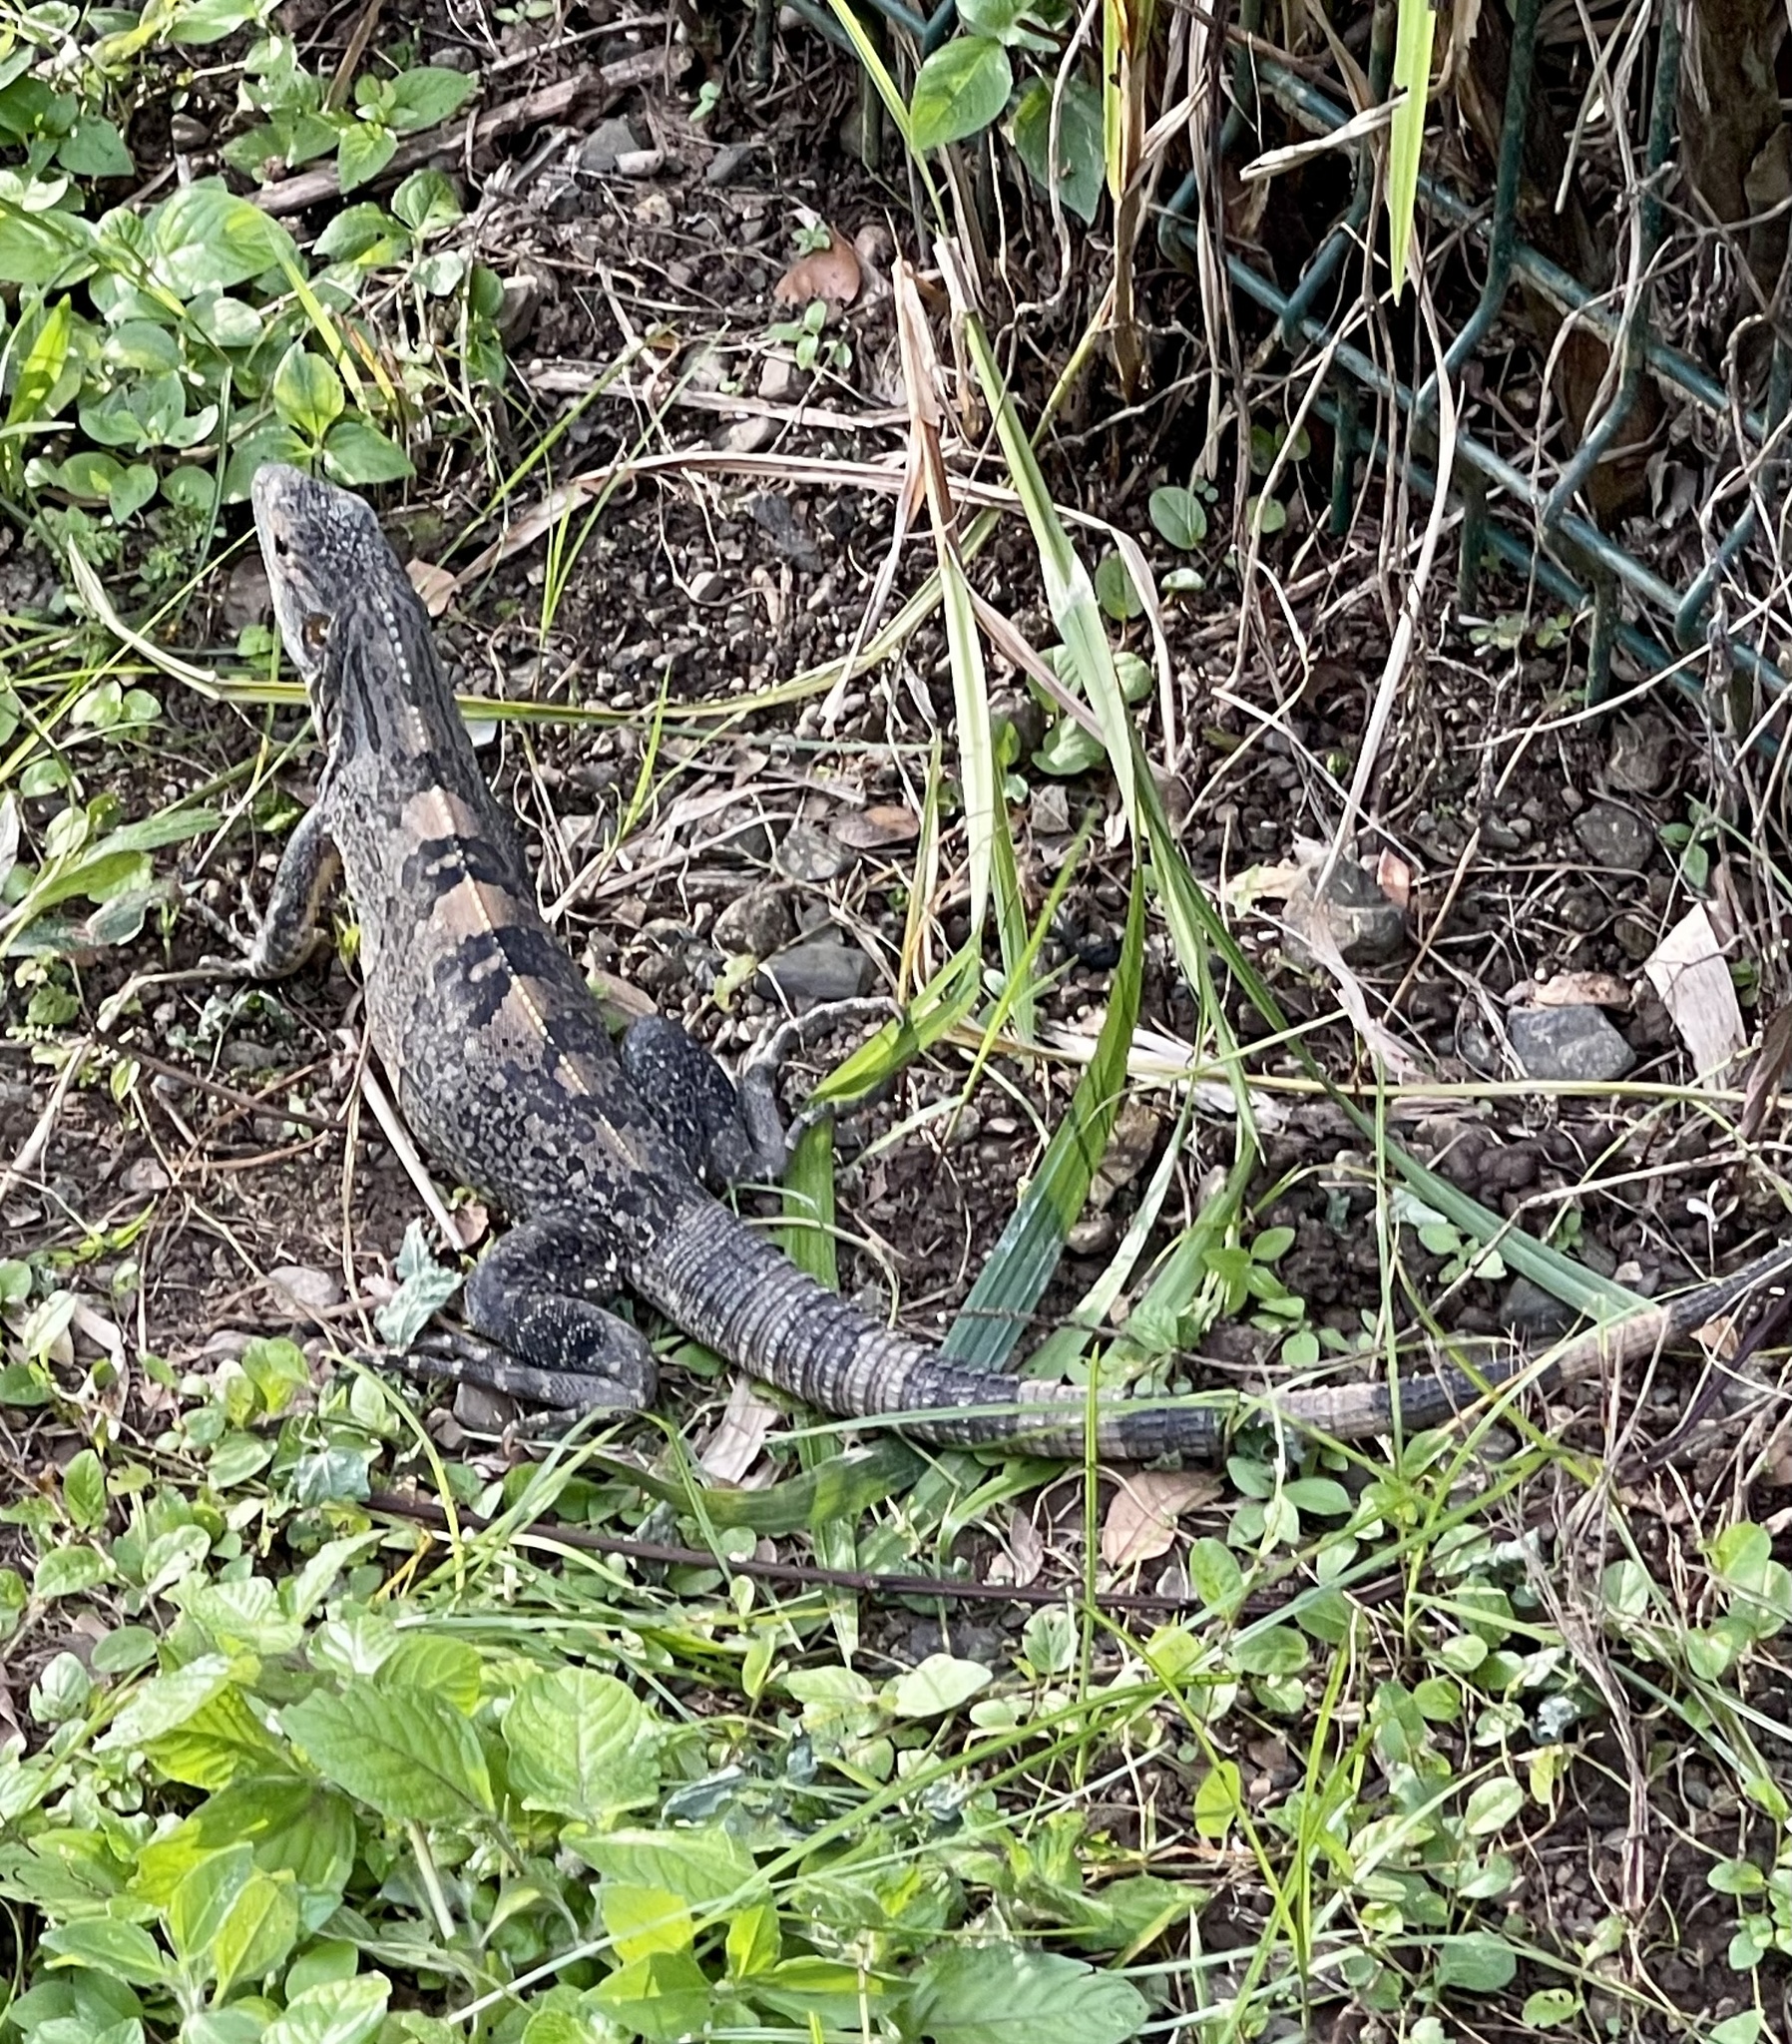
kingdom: Animalia
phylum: Chordata
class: Squamata
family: Iguanidae
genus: Ctenosaura
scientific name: Ctenosaura similis
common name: Black spiny-tailed iguana
